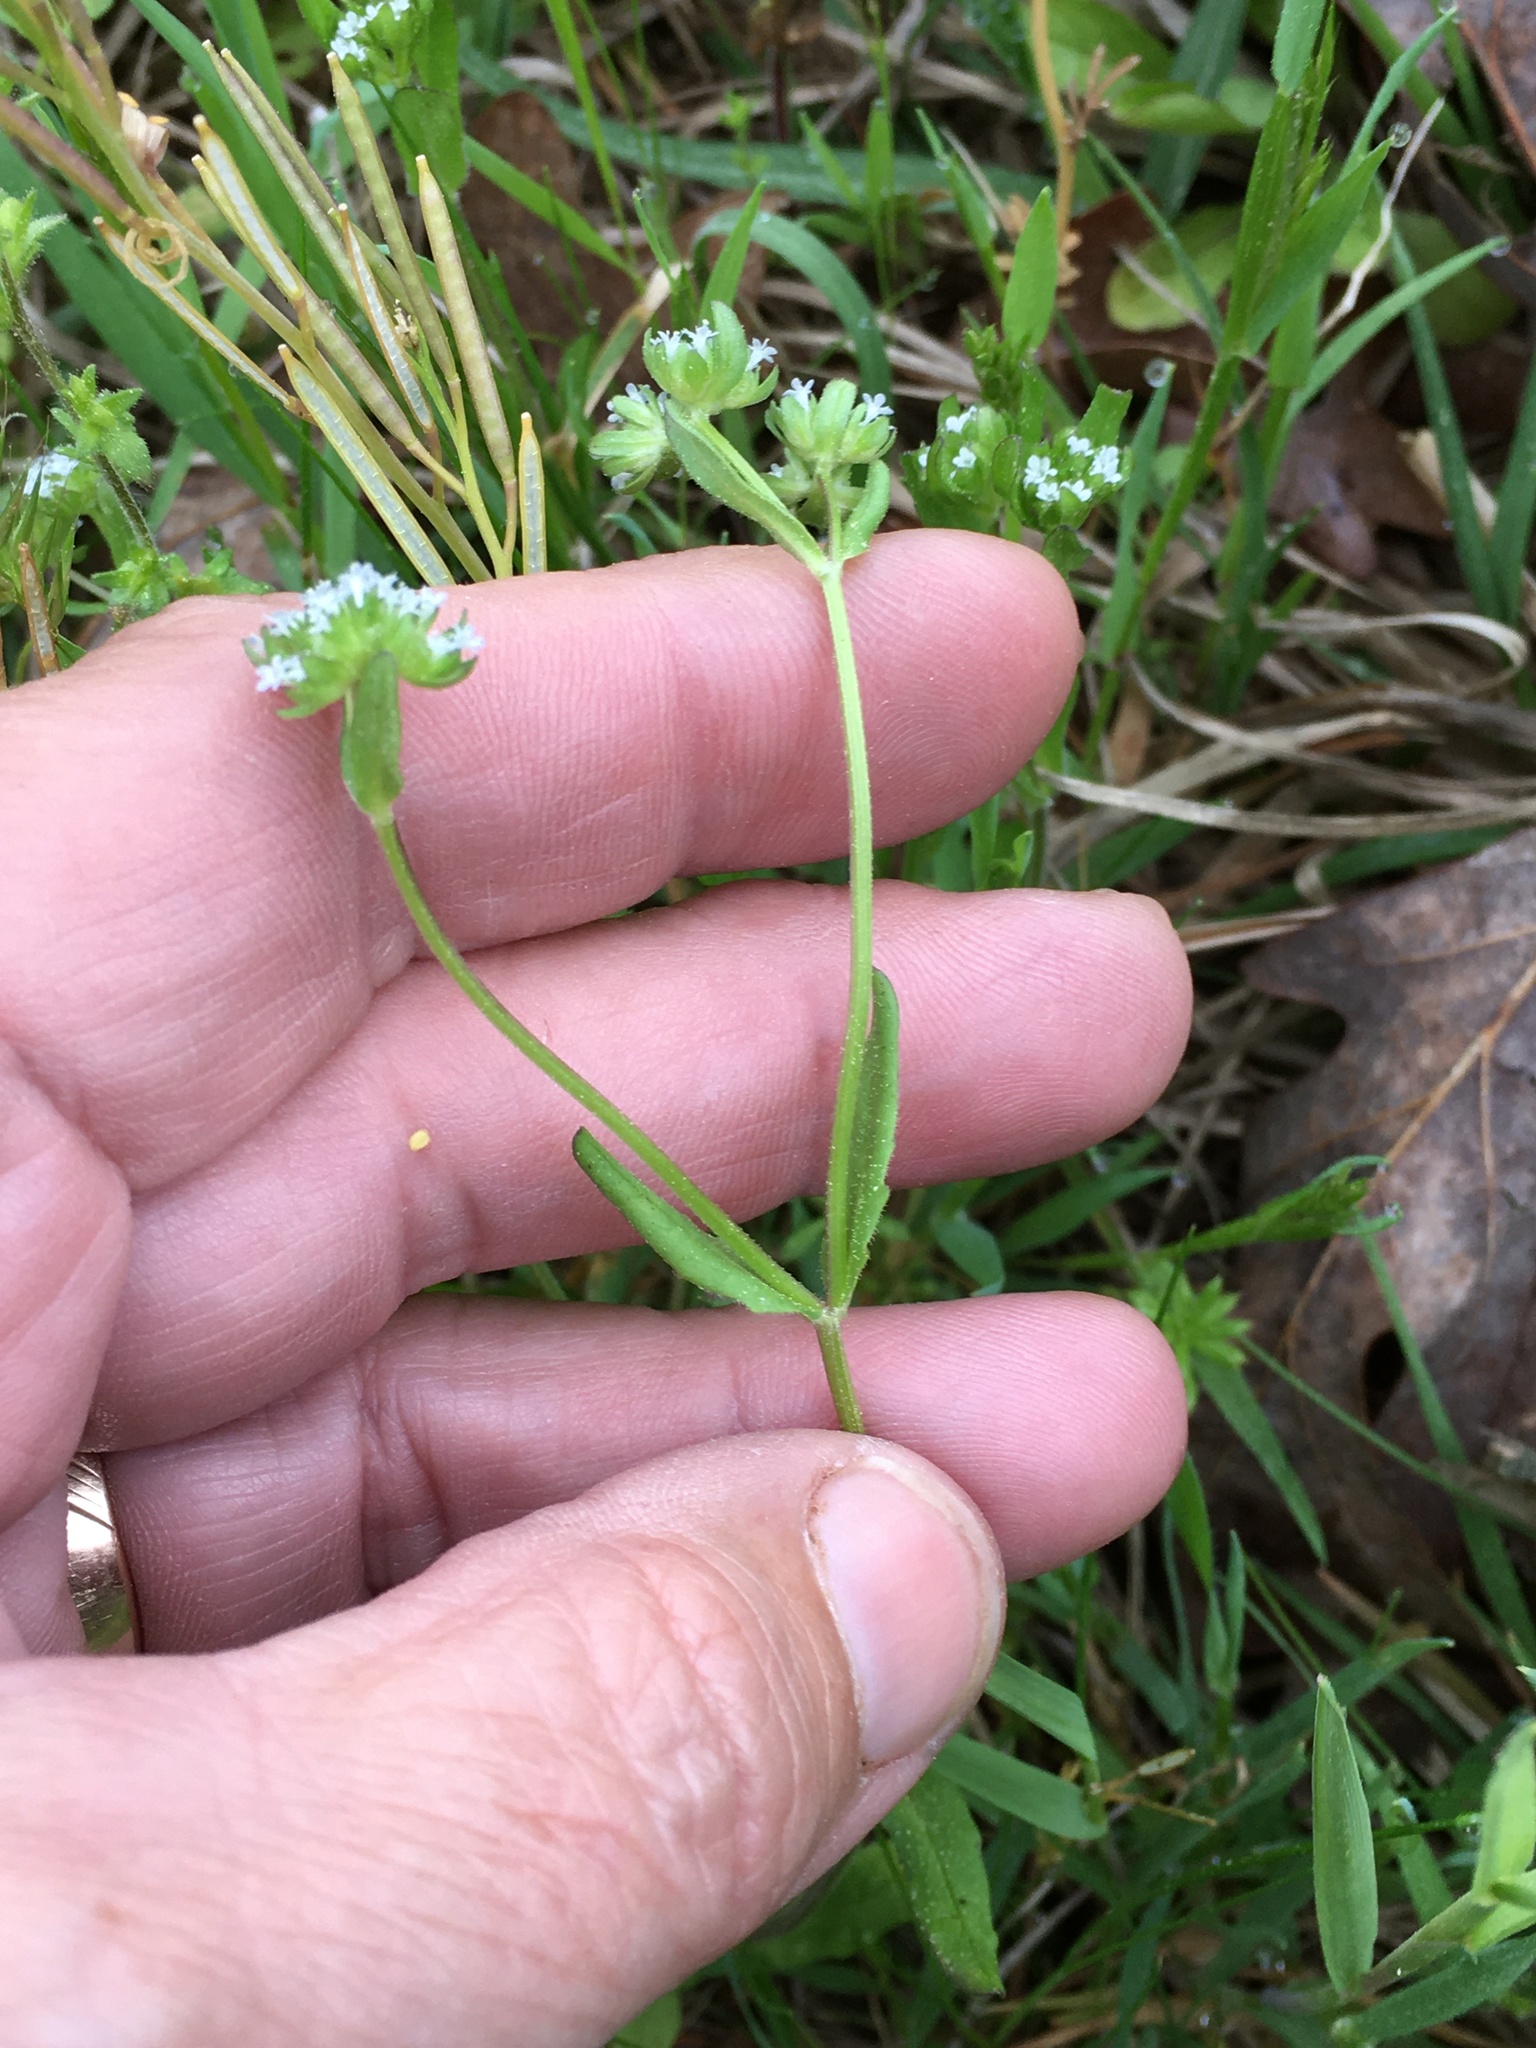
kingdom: Plantae
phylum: Tracheophyta
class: Magnoliopsida
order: Dipsacales
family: Caprifoliaceae
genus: Valerianella
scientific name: Valerianella locusta
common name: Common cornsalad
